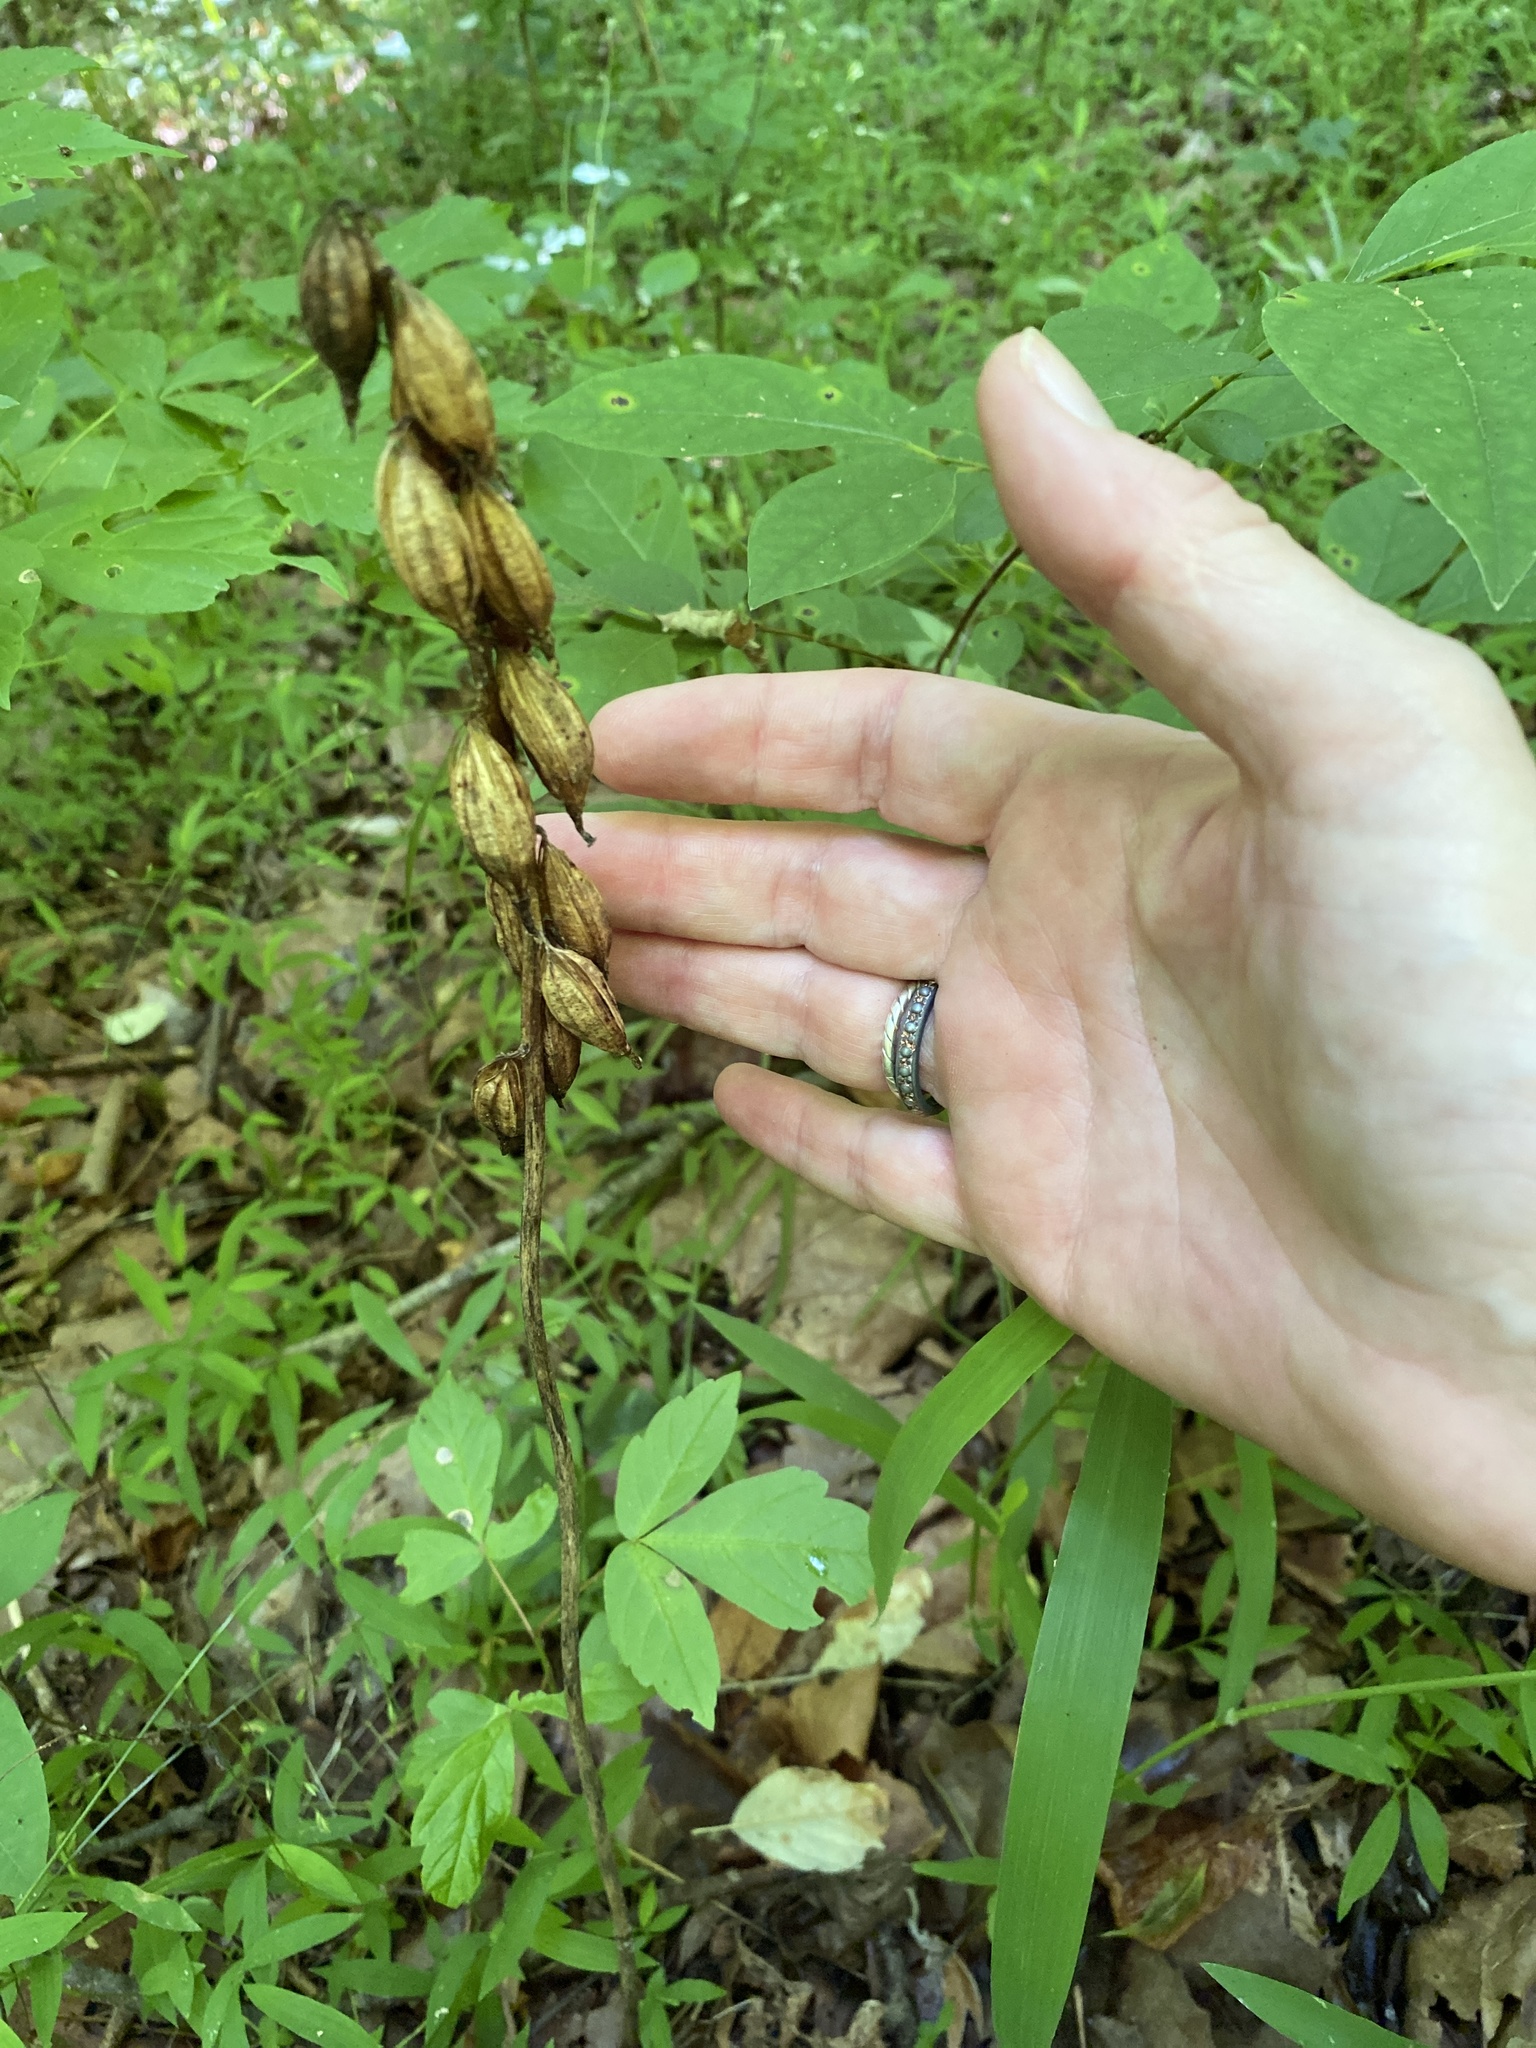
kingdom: Plantae
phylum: Tracheophyta
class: Liliopsida
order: Asparagales
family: Orchidaceae
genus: Aplectrum
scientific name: Aplectrum hyemale
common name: Adam-and-eve
